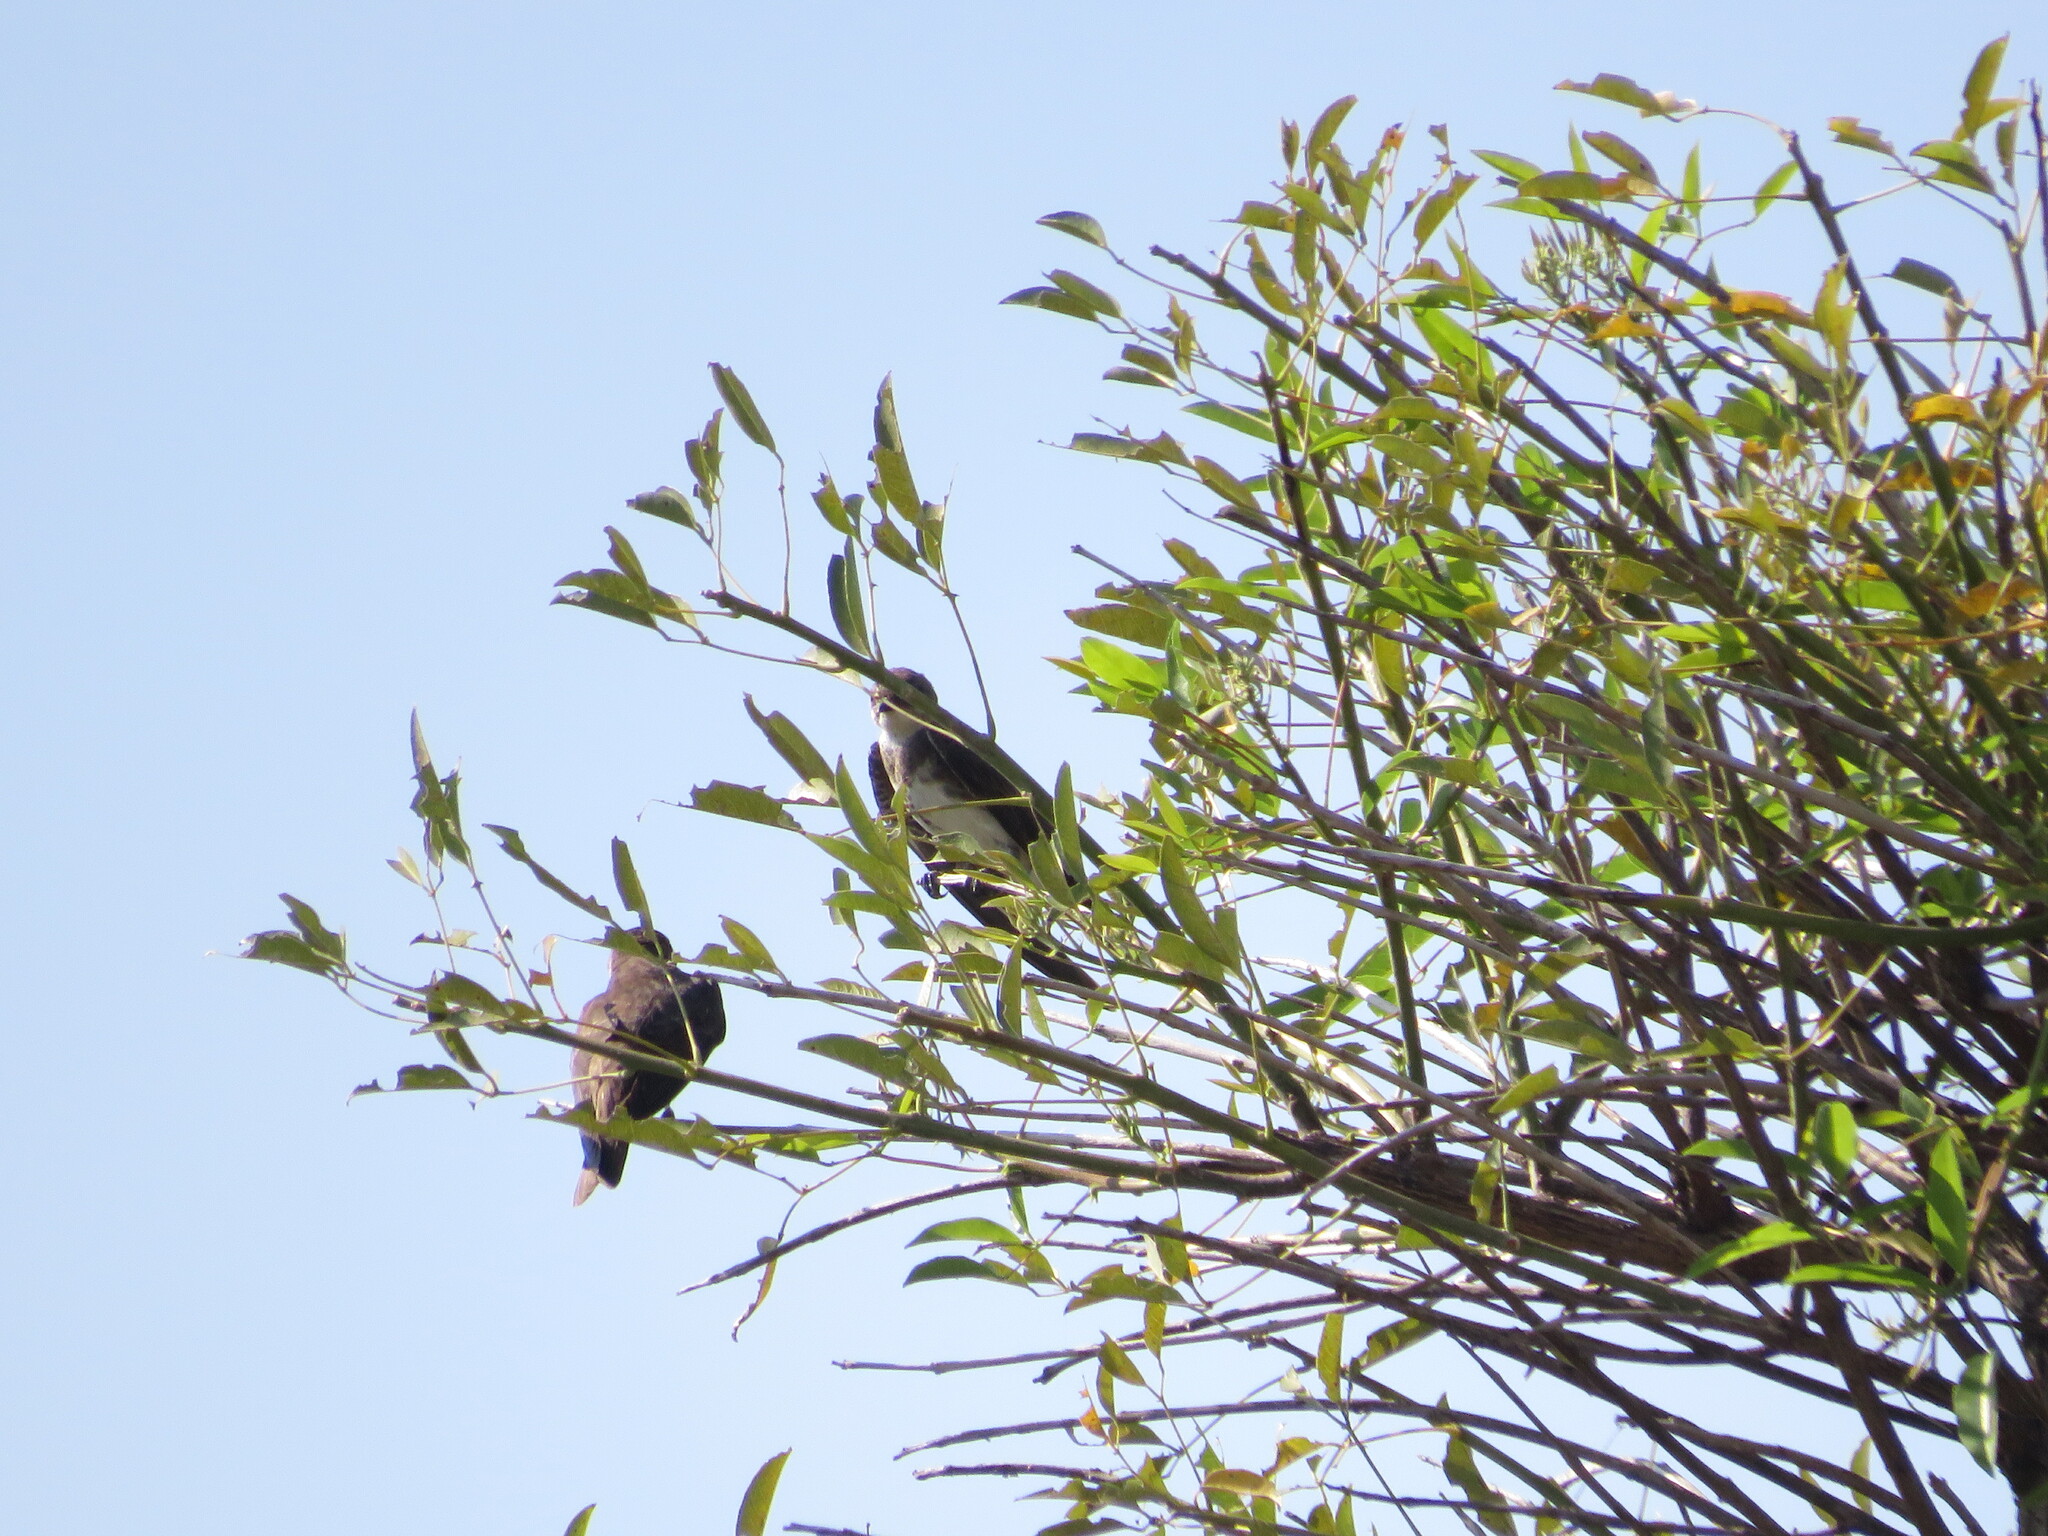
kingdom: Animalia
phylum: Chordata
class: Aves
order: Passeriformes
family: Hirundinidae
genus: Progne
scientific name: Progne tapera
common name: Brown-chested martin
